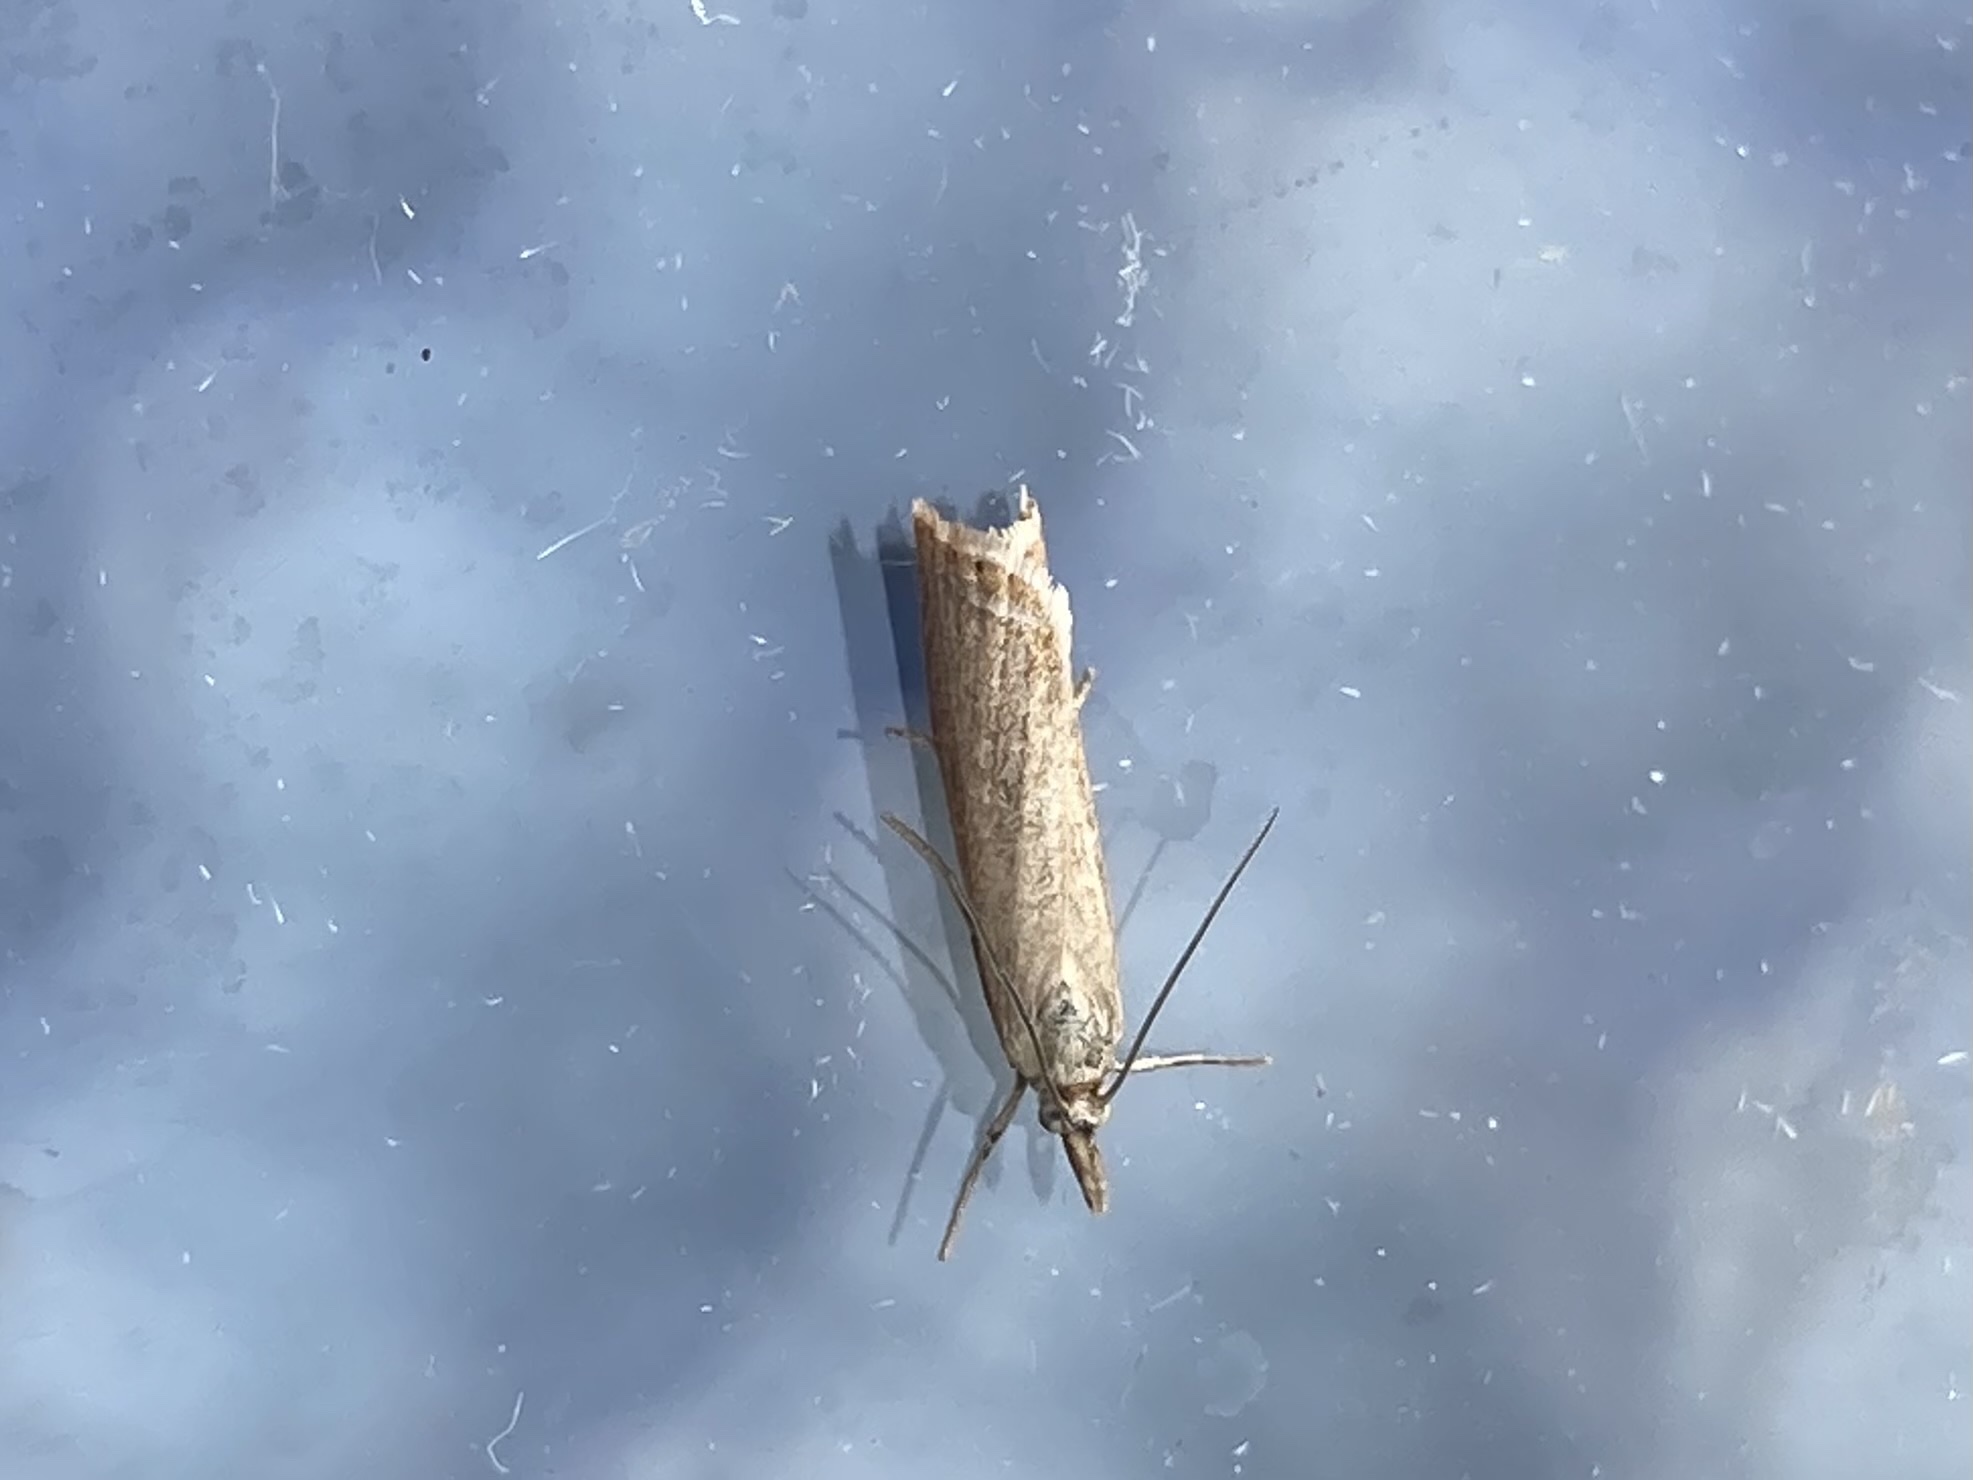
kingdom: Animalia
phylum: Arthropoda
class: Insecta
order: Lepidoptera
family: Crambidae
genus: Chrysoteuchia
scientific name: Chrysoteuchia culmella
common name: Garden grass-veneer
